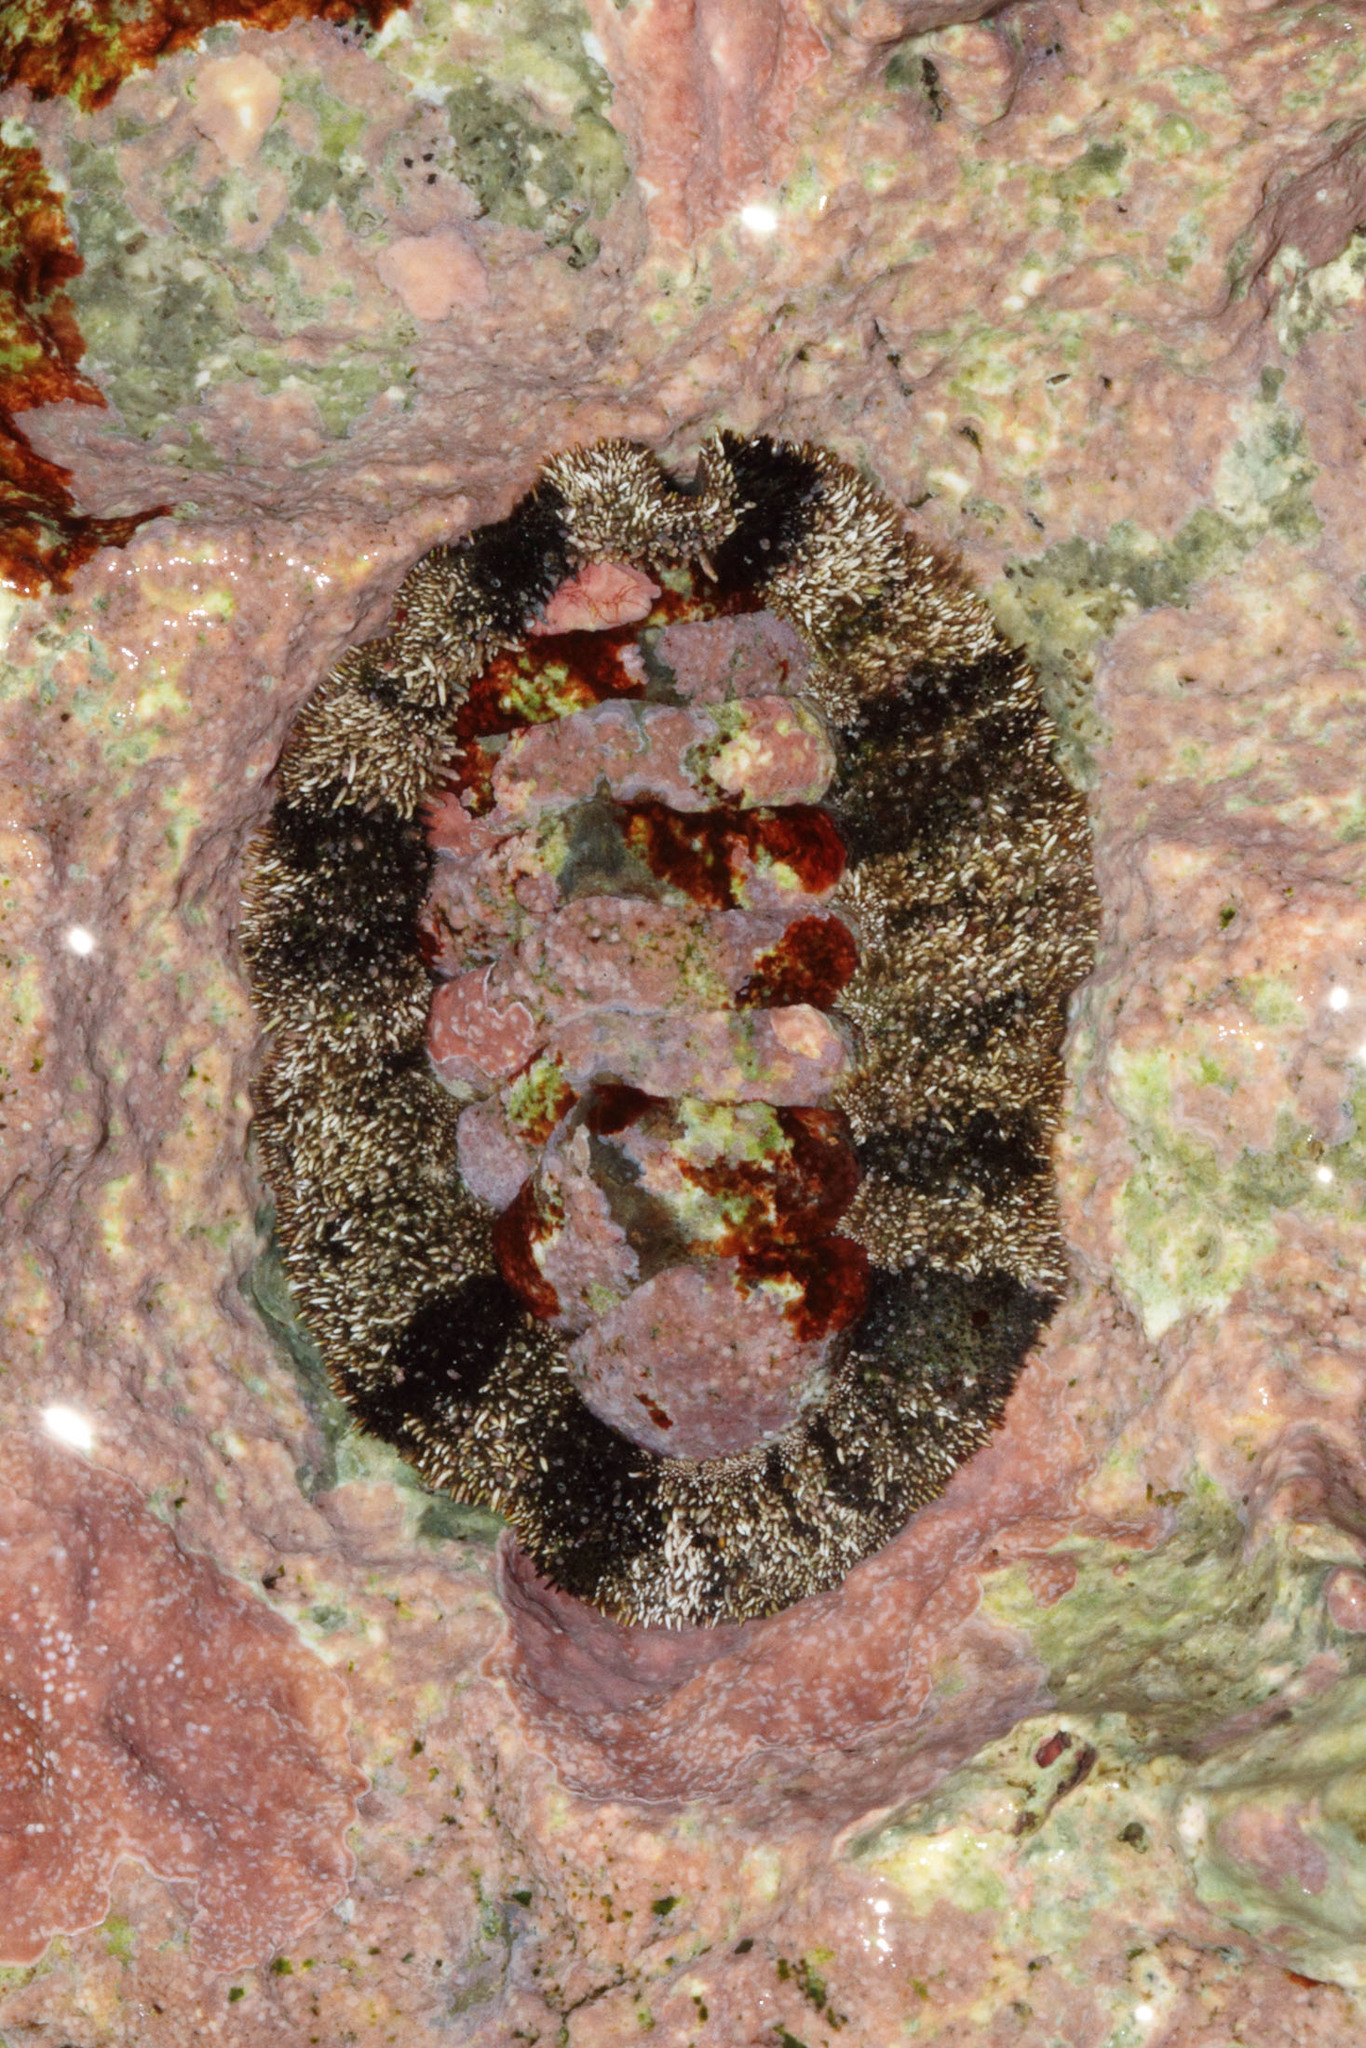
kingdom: Animalia
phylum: Mollusca
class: Polyplacophora
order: Chitonida
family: Chitonidae
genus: Acanthopleura
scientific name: Acanthopleura granulata
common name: West indian fuzzy chiton
